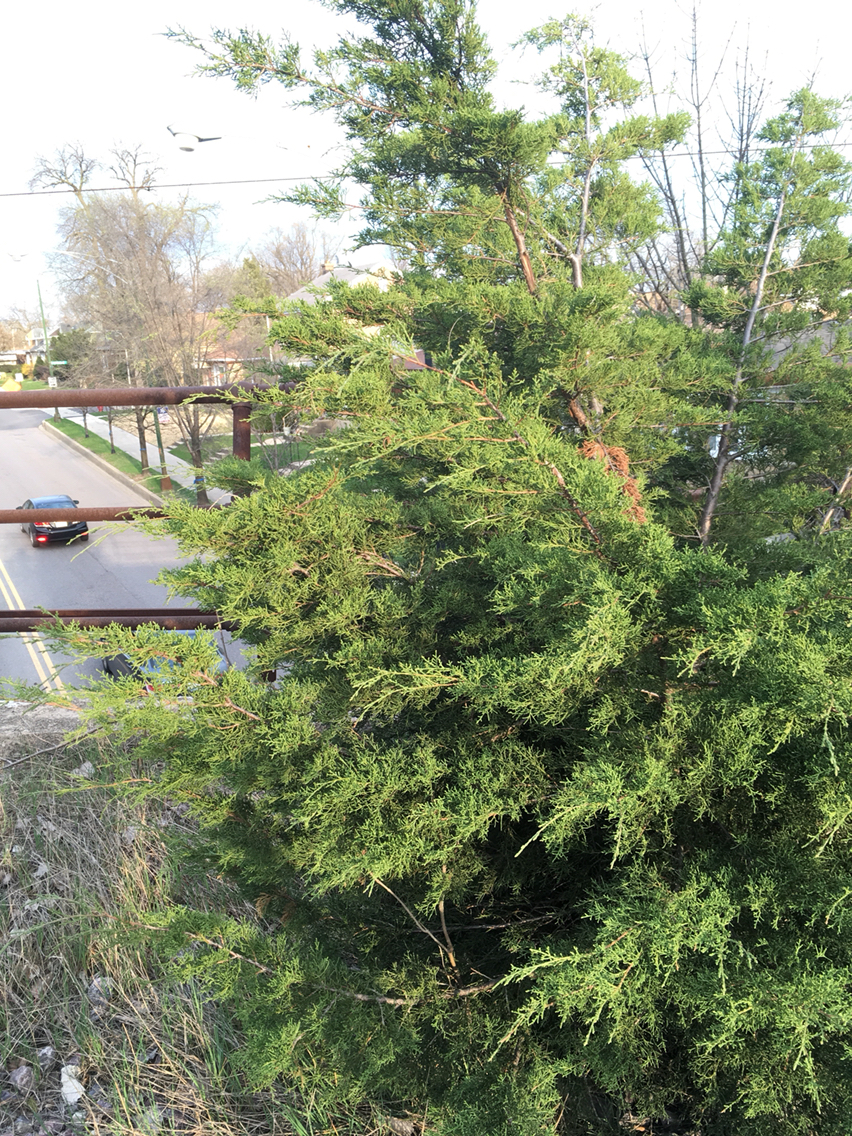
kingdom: Plantae
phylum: Tracheophyta
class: Pinopsida
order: Pinales
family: Cupressaceae
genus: Juniperus
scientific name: Juniperus virginiana
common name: Red juniper
